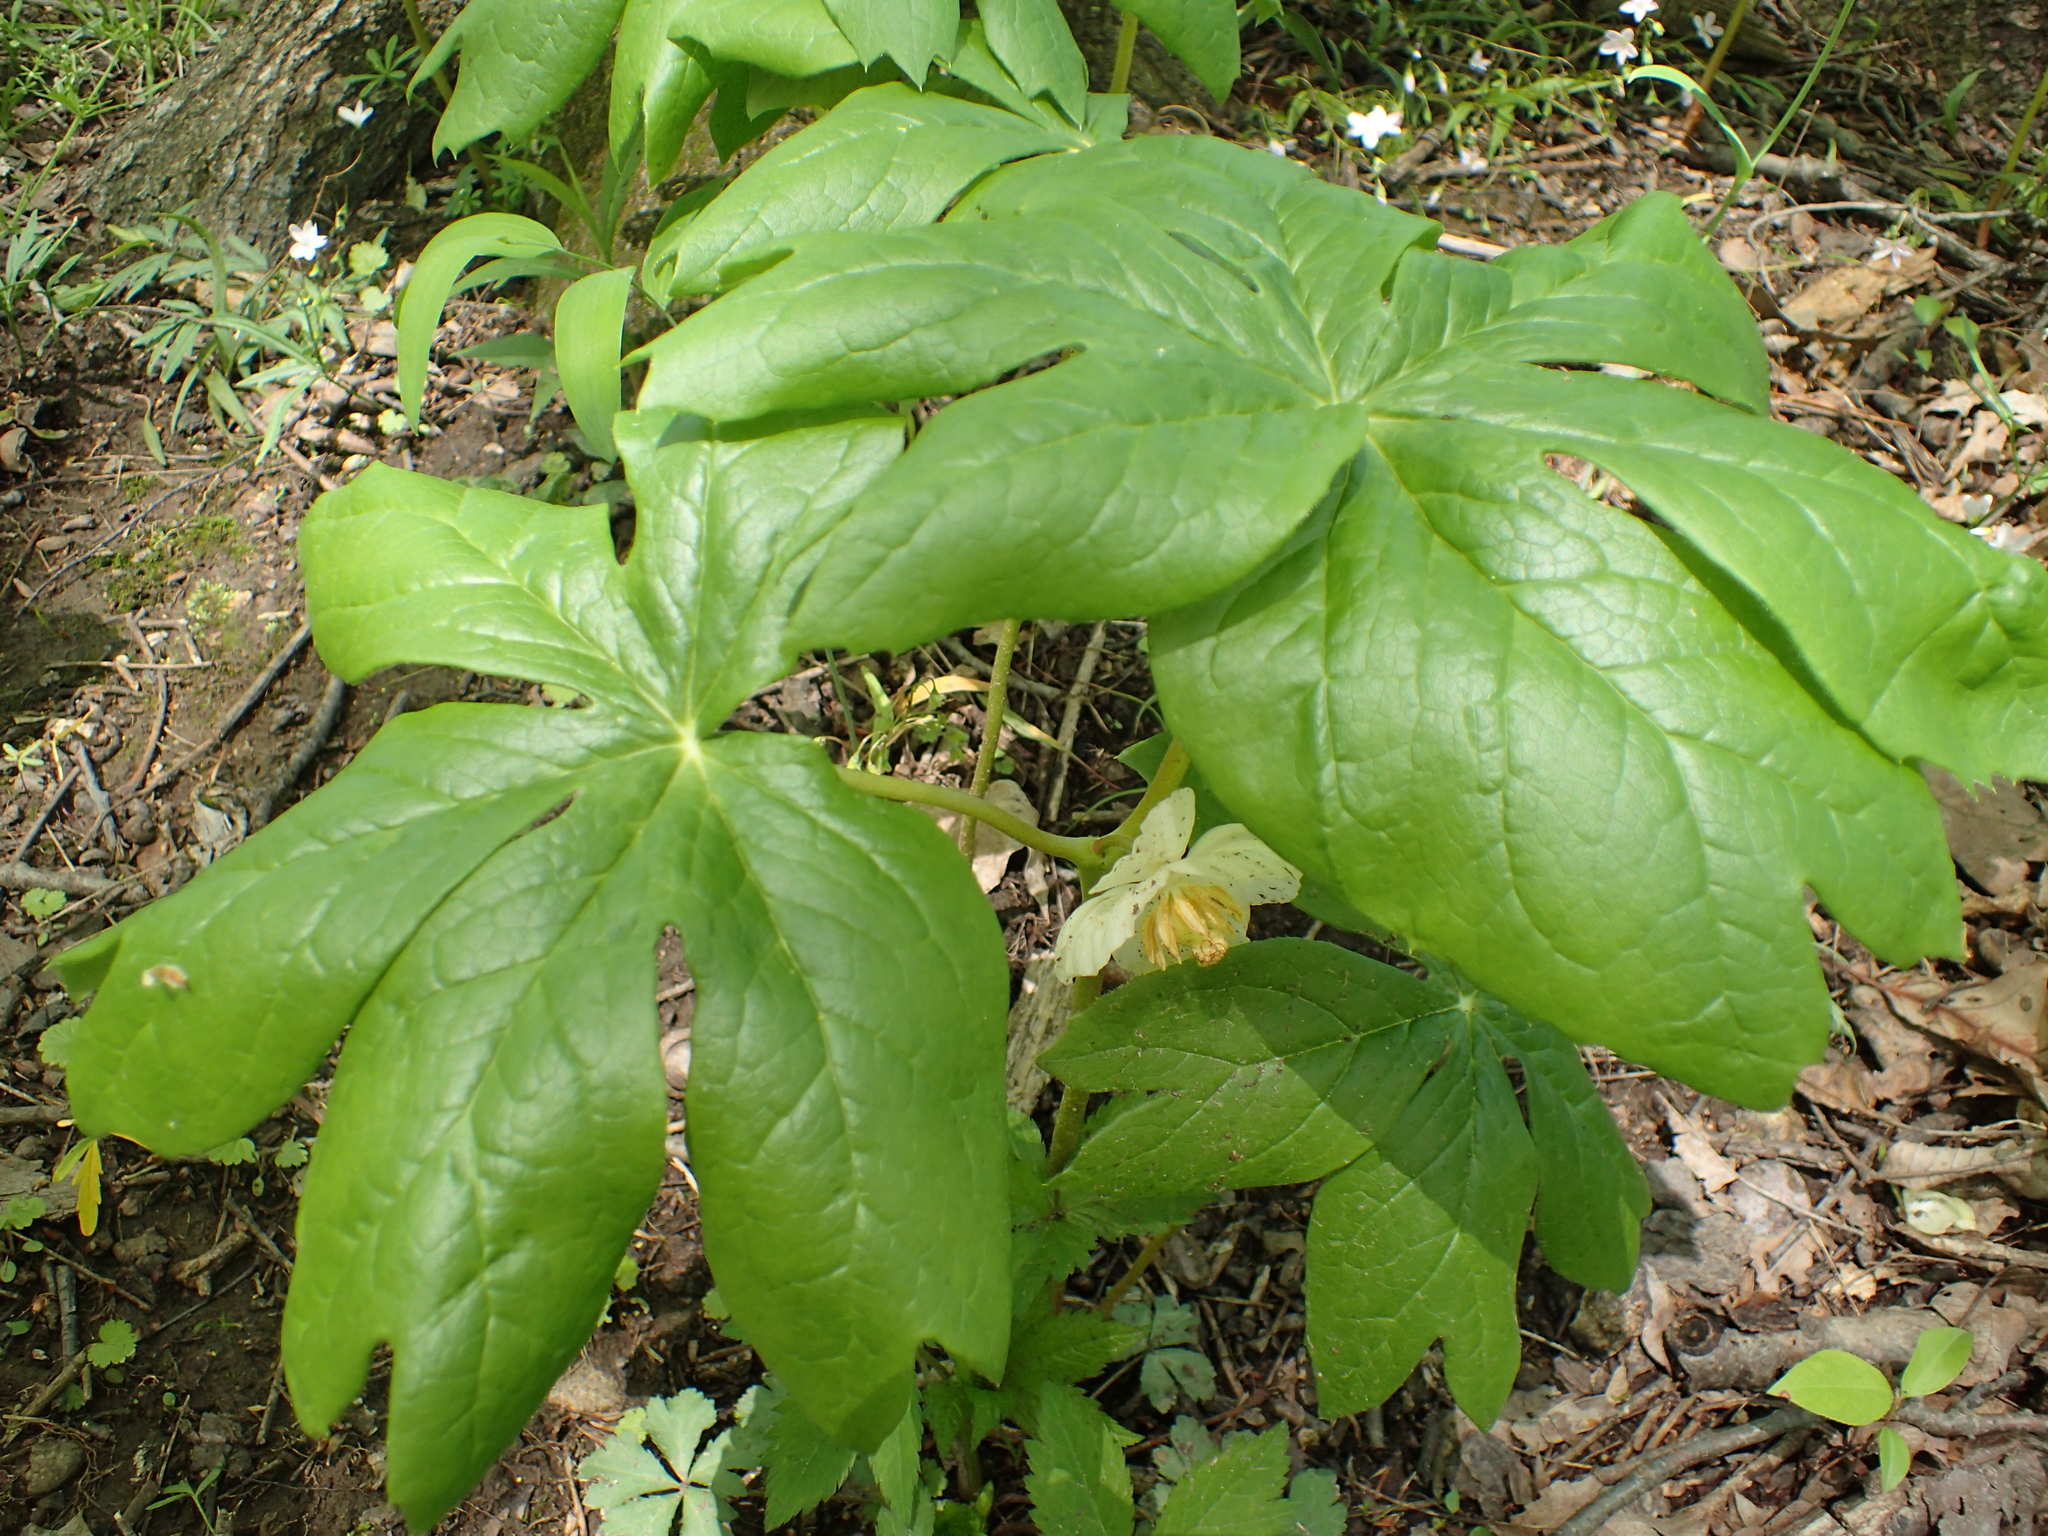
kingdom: Plantae
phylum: Tracheophyta
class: Magnoliopsida
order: Ranunculales
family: Berberidaceae
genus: Podophyllum
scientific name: Podophyllum peltatum
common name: Wild mandrake
